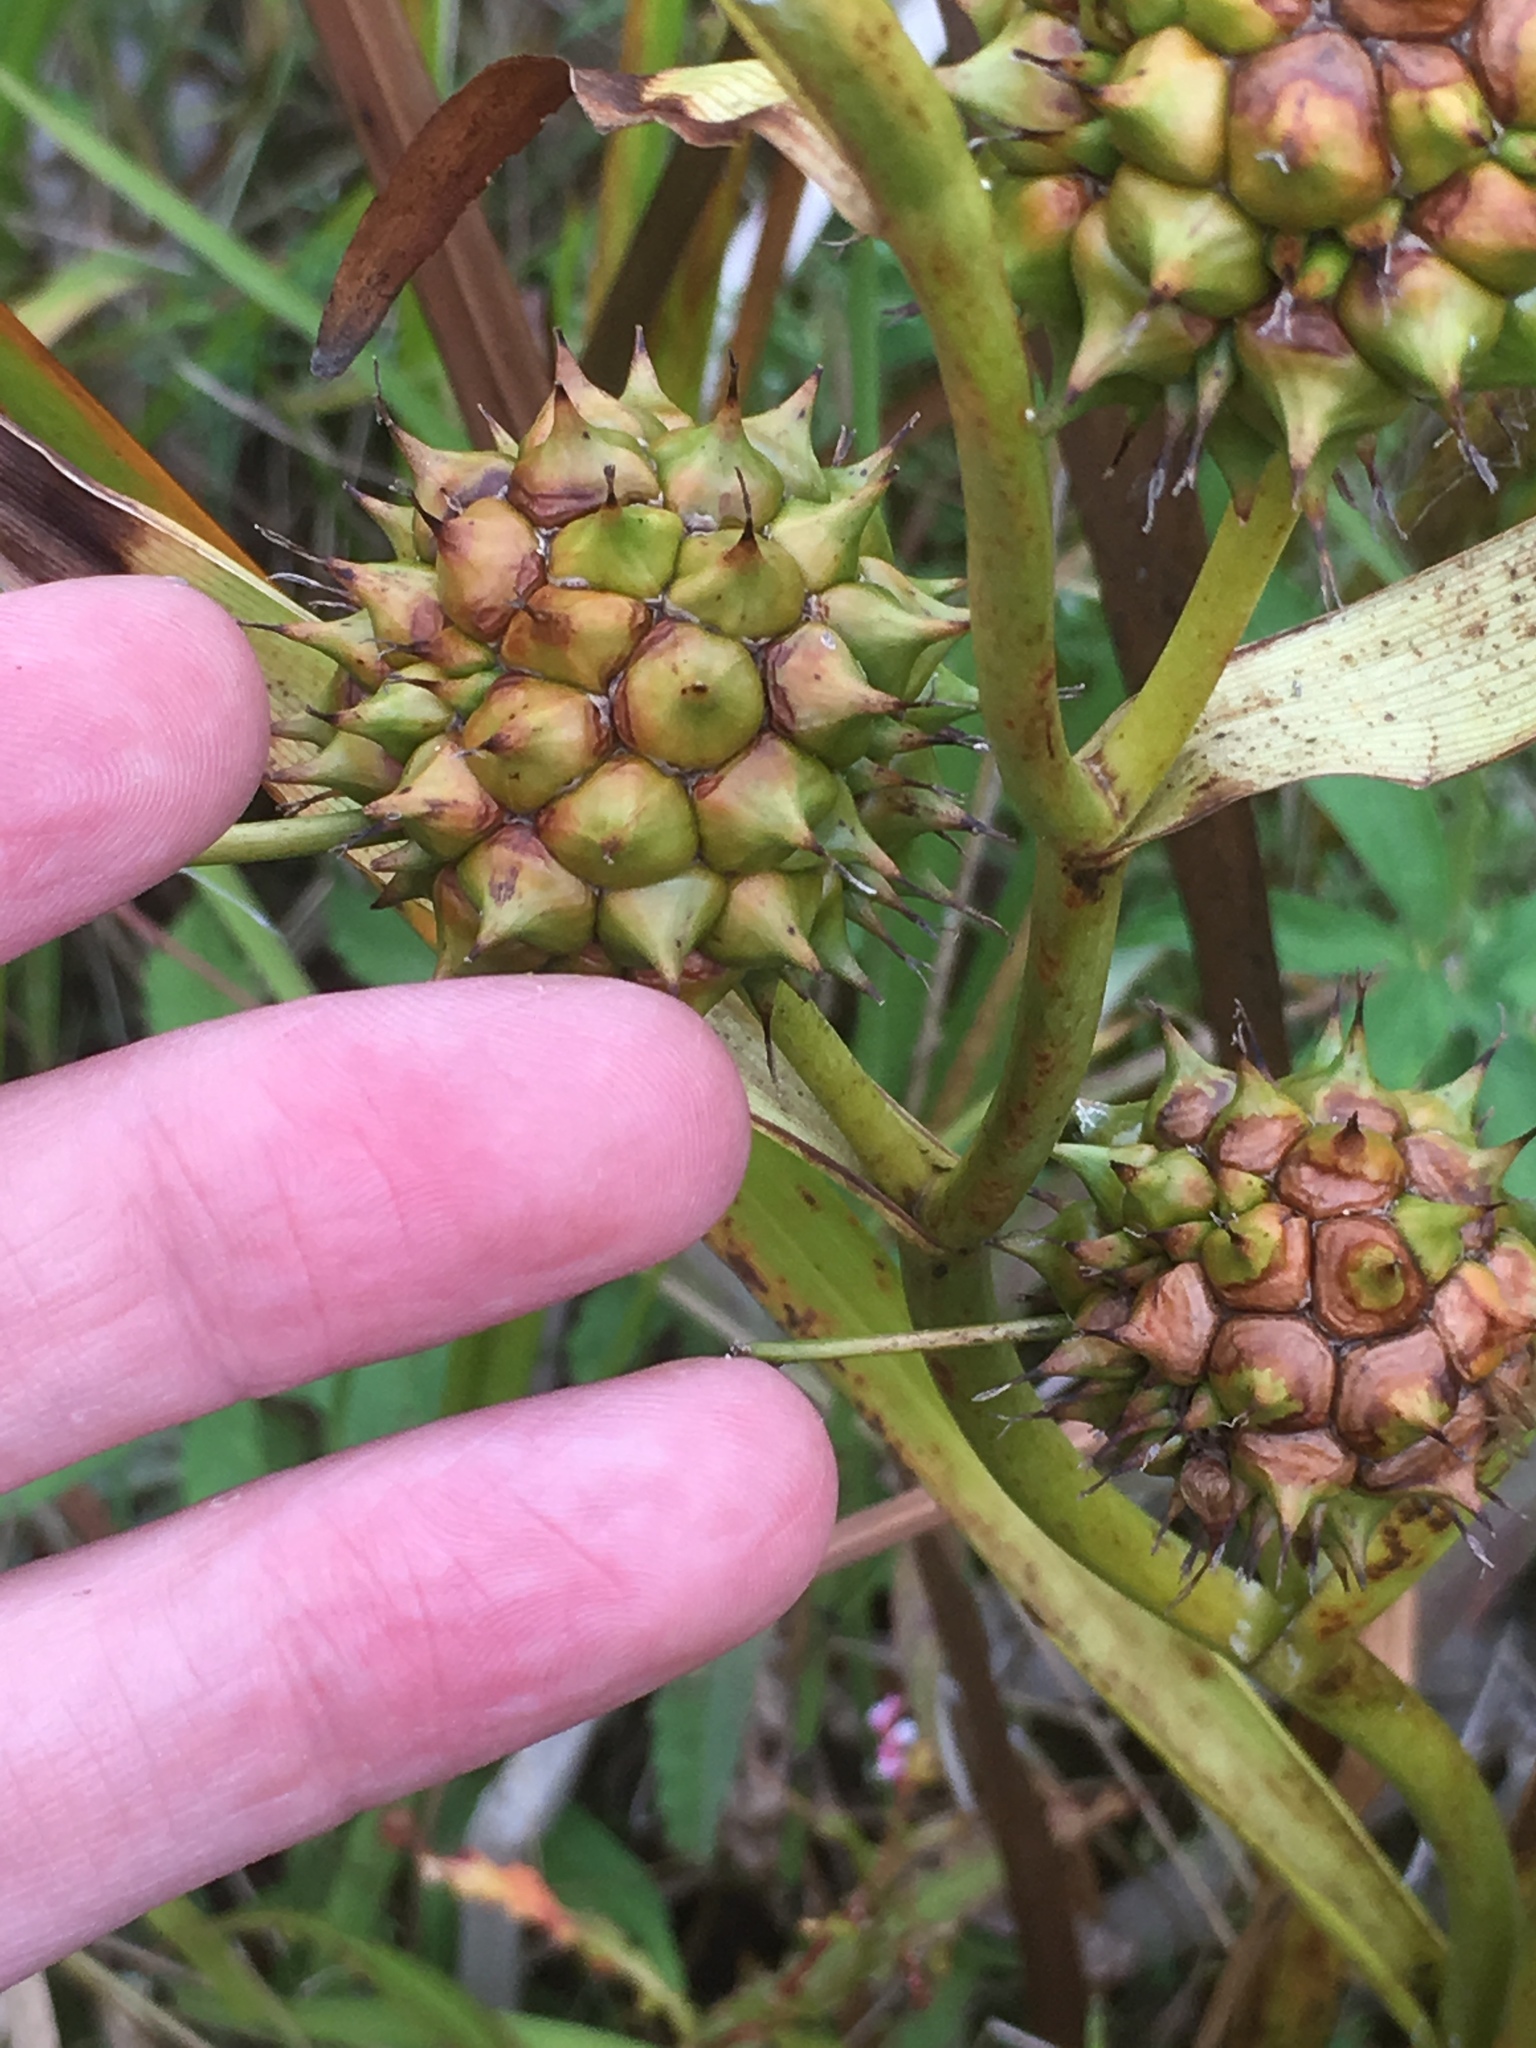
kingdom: Plantae
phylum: Tracheophyta
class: Liliopsida
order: Poales
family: Typhaceae
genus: Sparganium
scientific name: Sparganium eurycarpum
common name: Broad-fruited burreed
